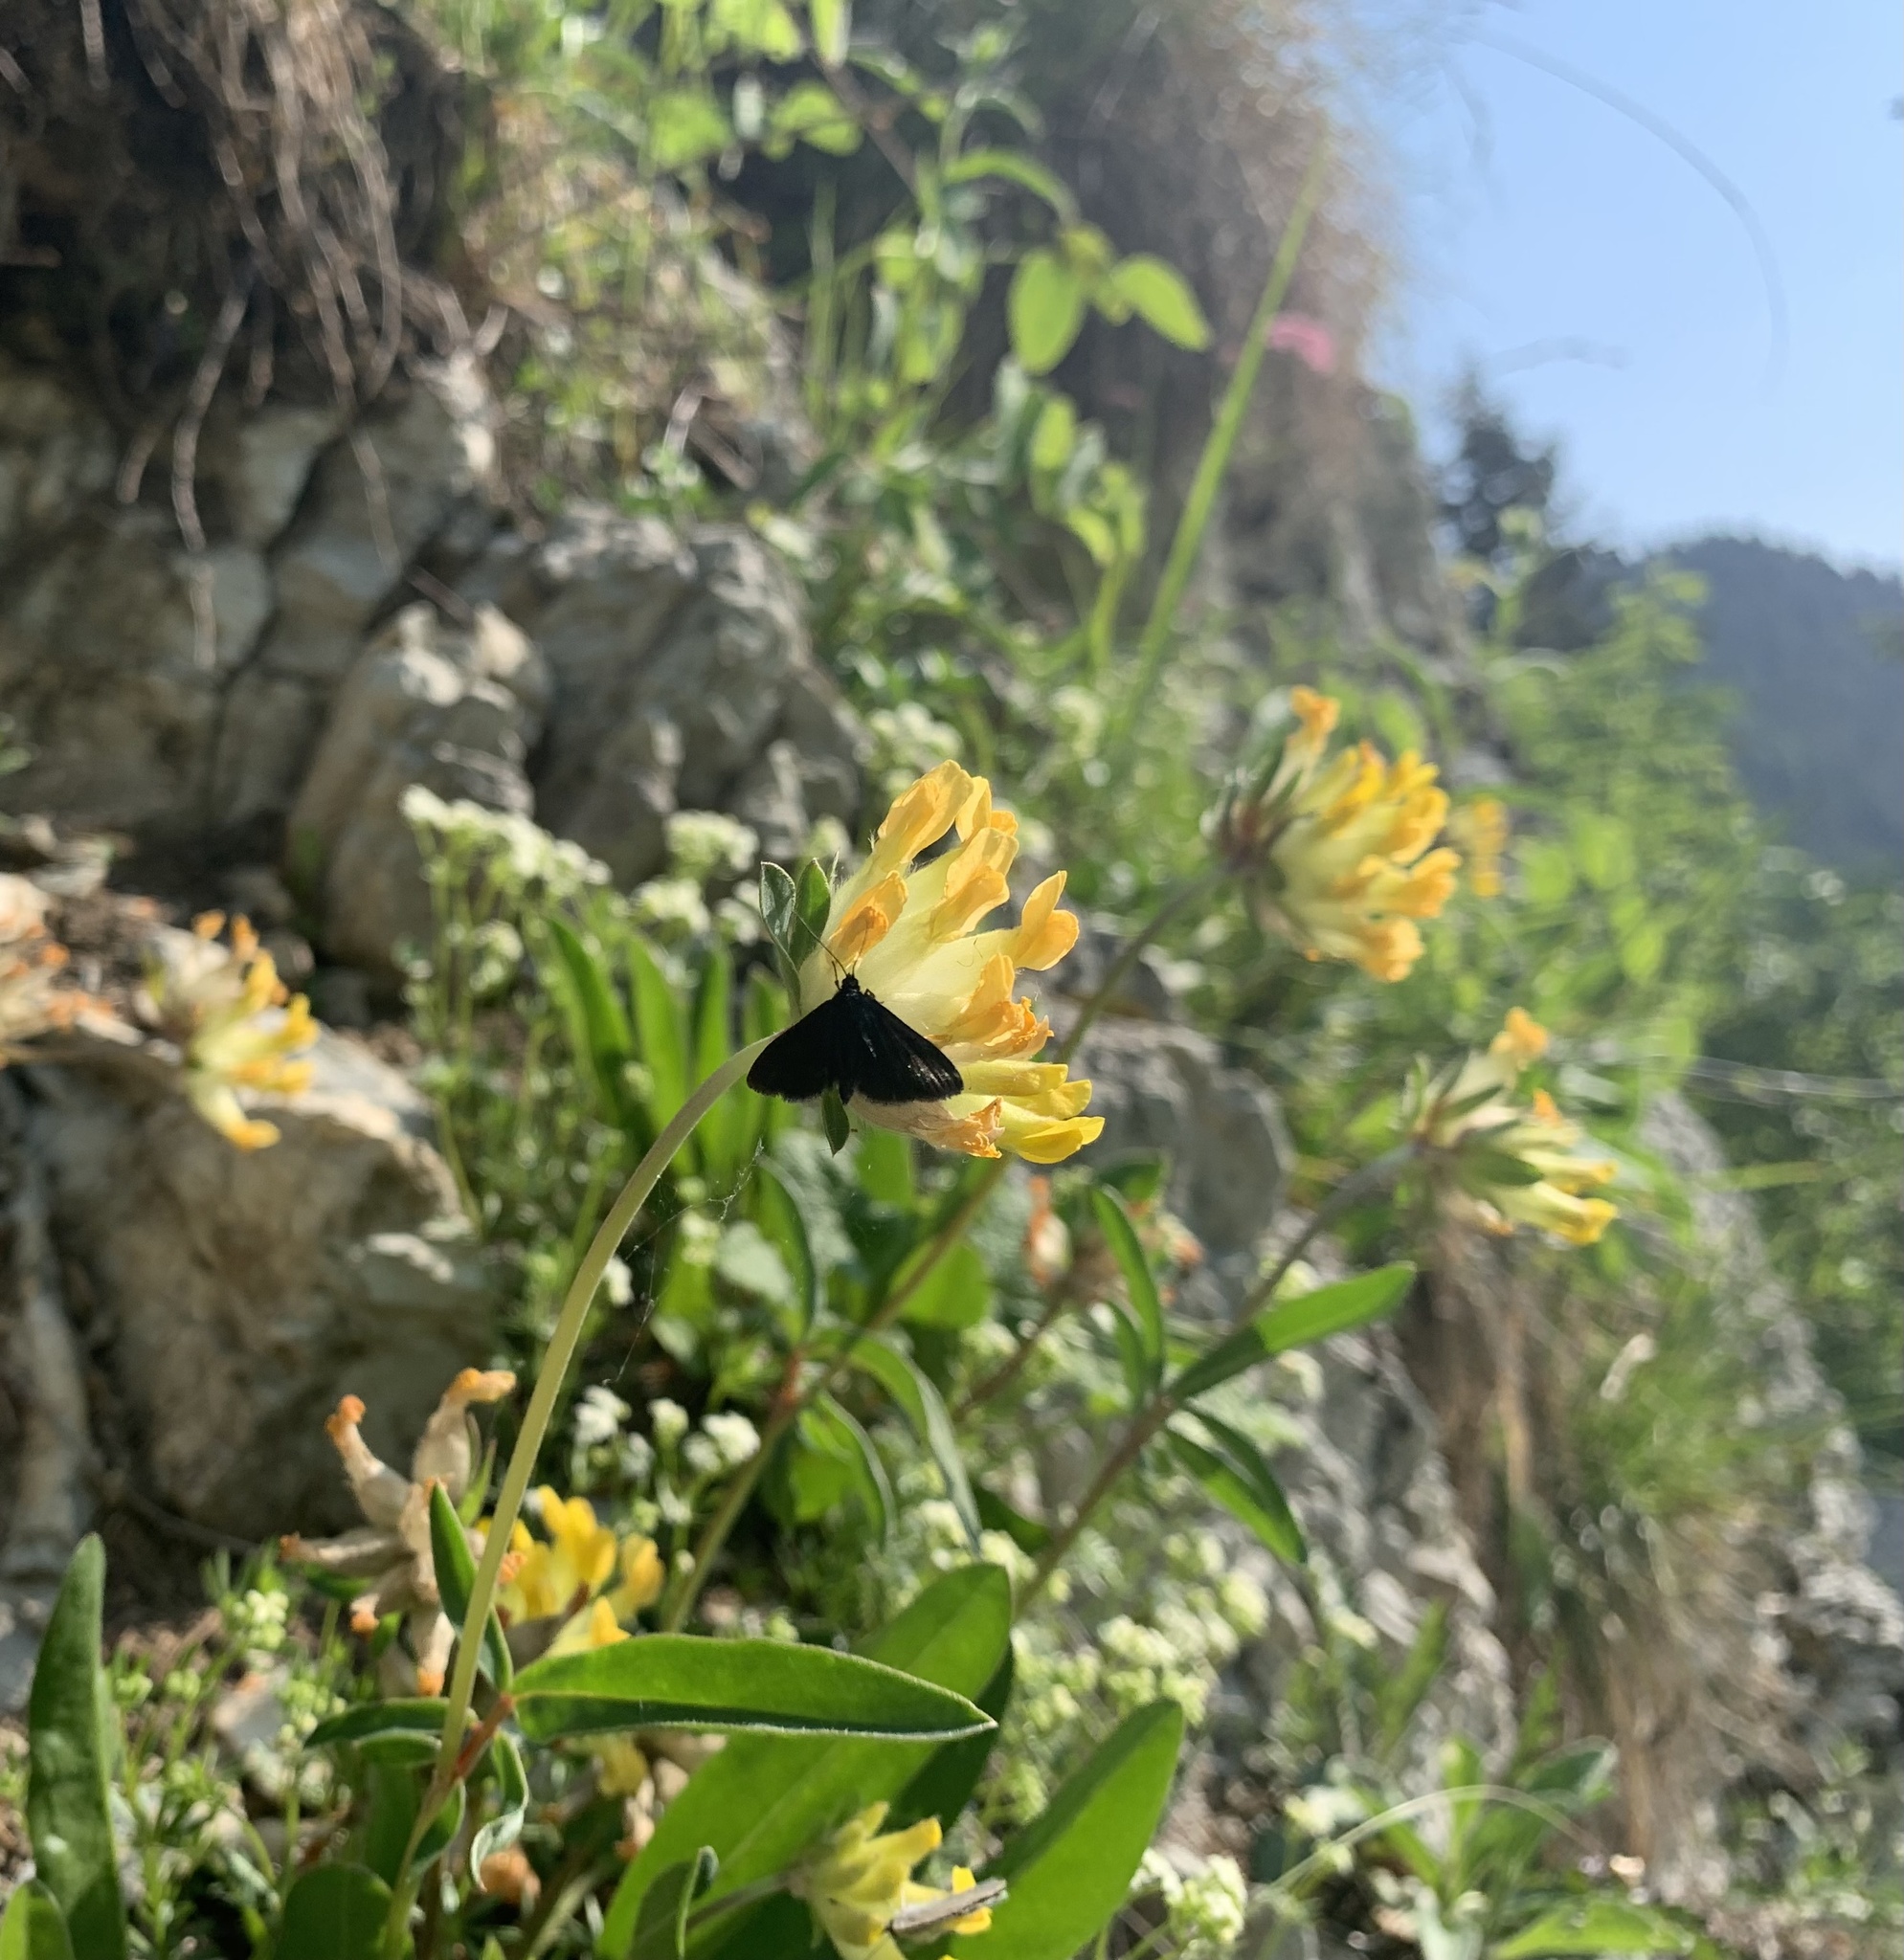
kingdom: Animalia
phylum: Arthropoda
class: Insecta
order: Lepidoptera
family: Geometridae
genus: Odezia
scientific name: Odezia atrata
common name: Chimney sweeper
